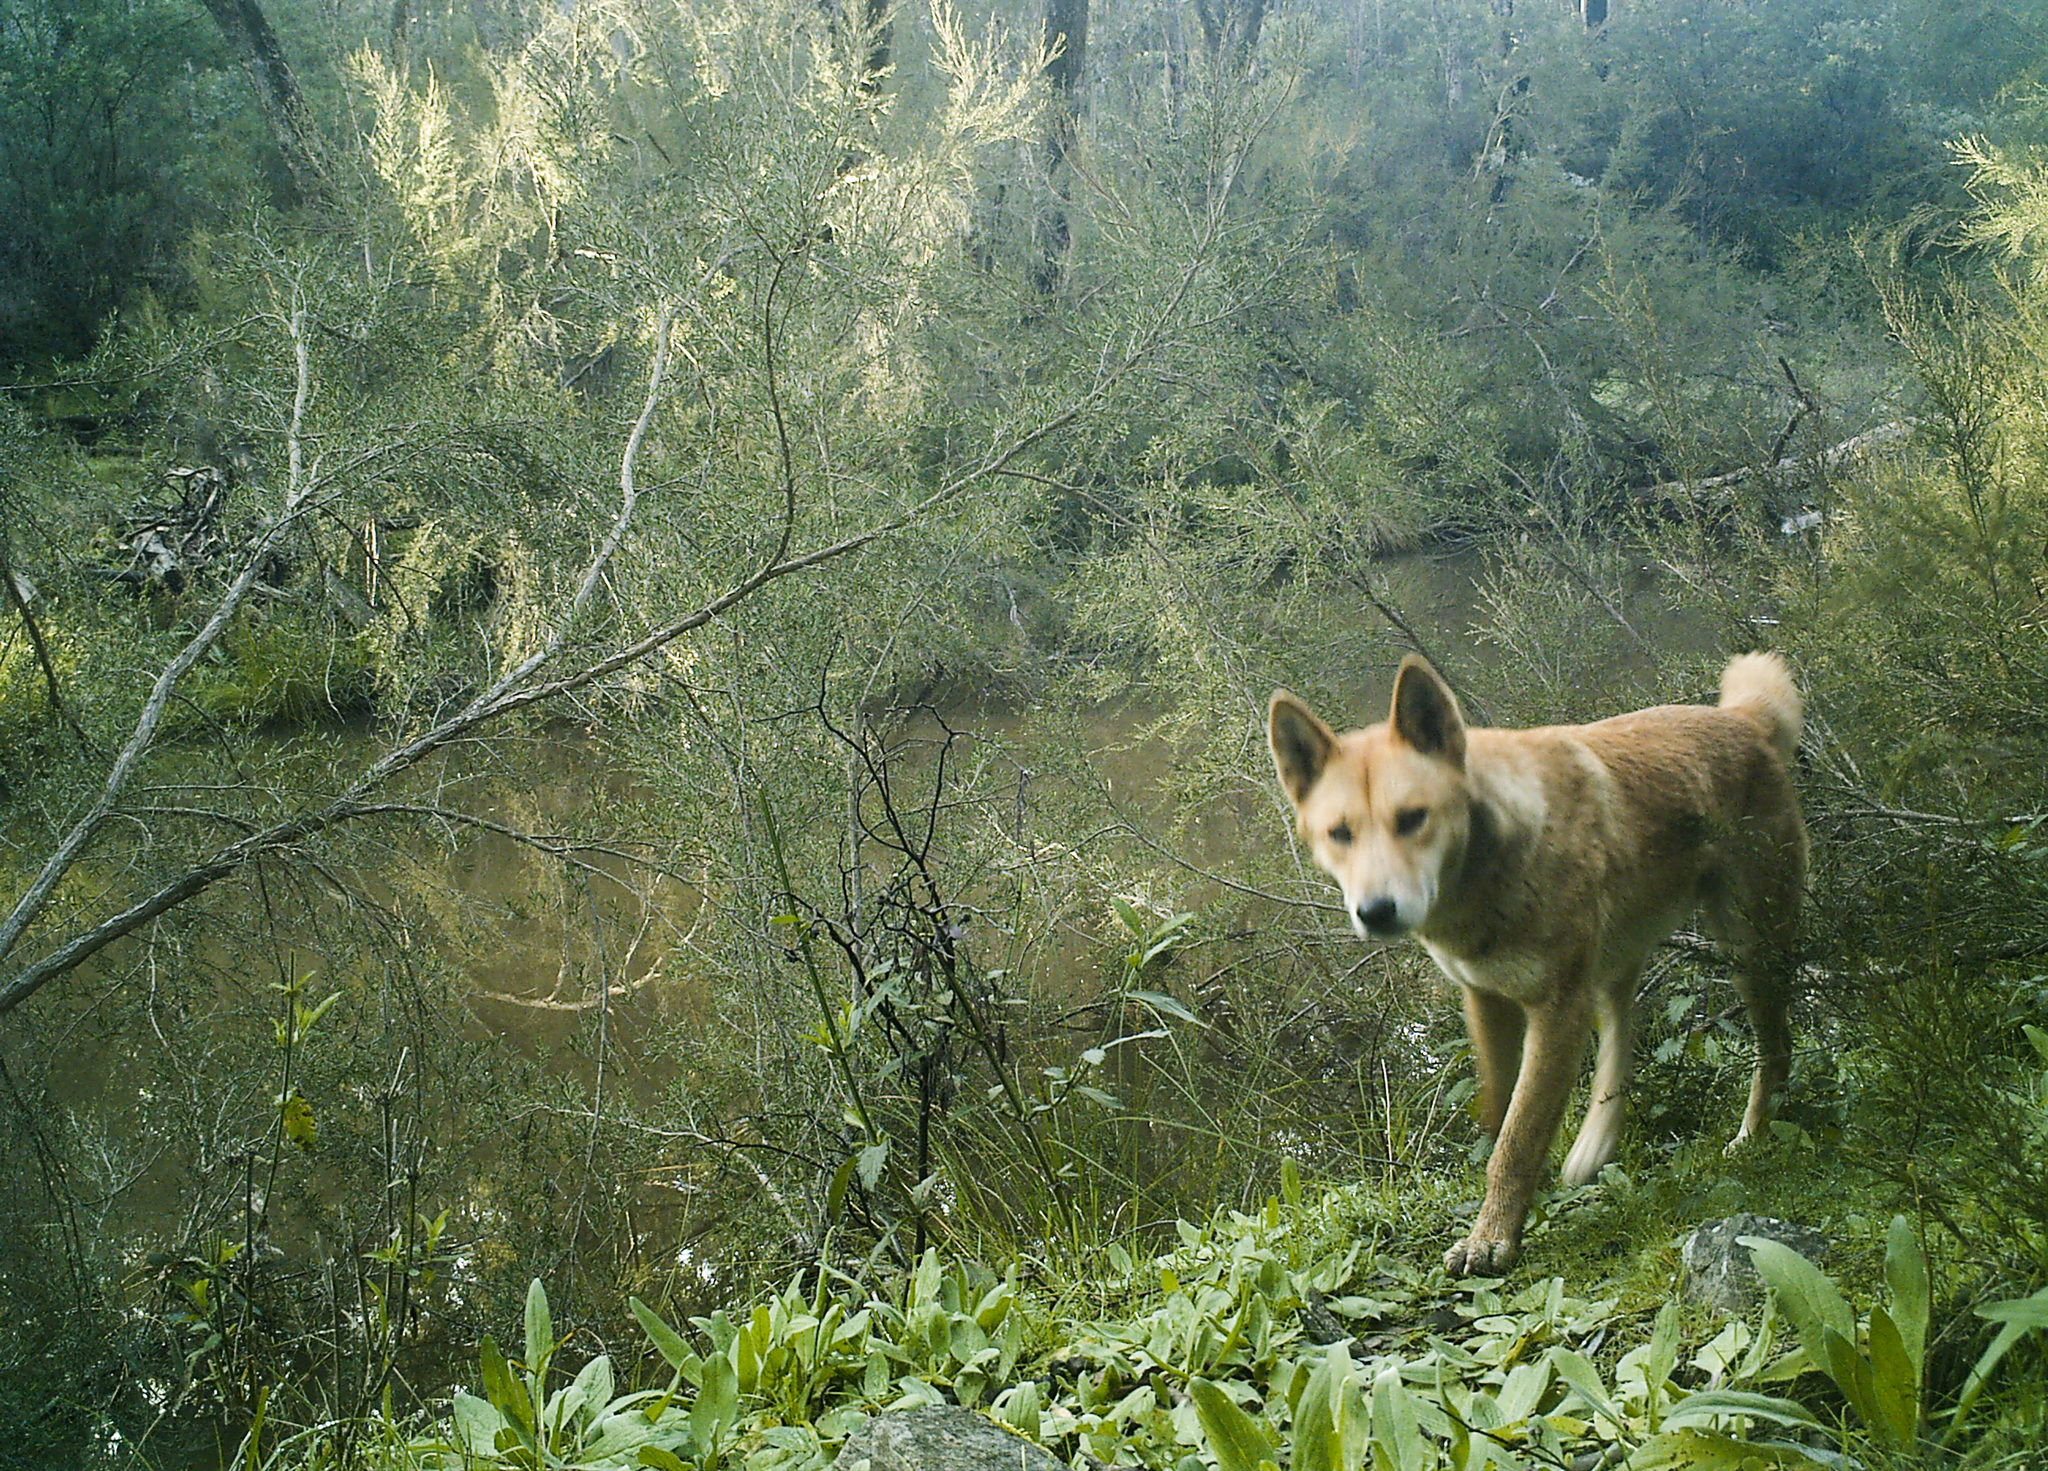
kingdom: Animalia
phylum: Chordata
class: Mammalia
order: Carnivora
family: Canidae
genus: Canis
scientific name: Canis lupus
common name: Gray wolf
